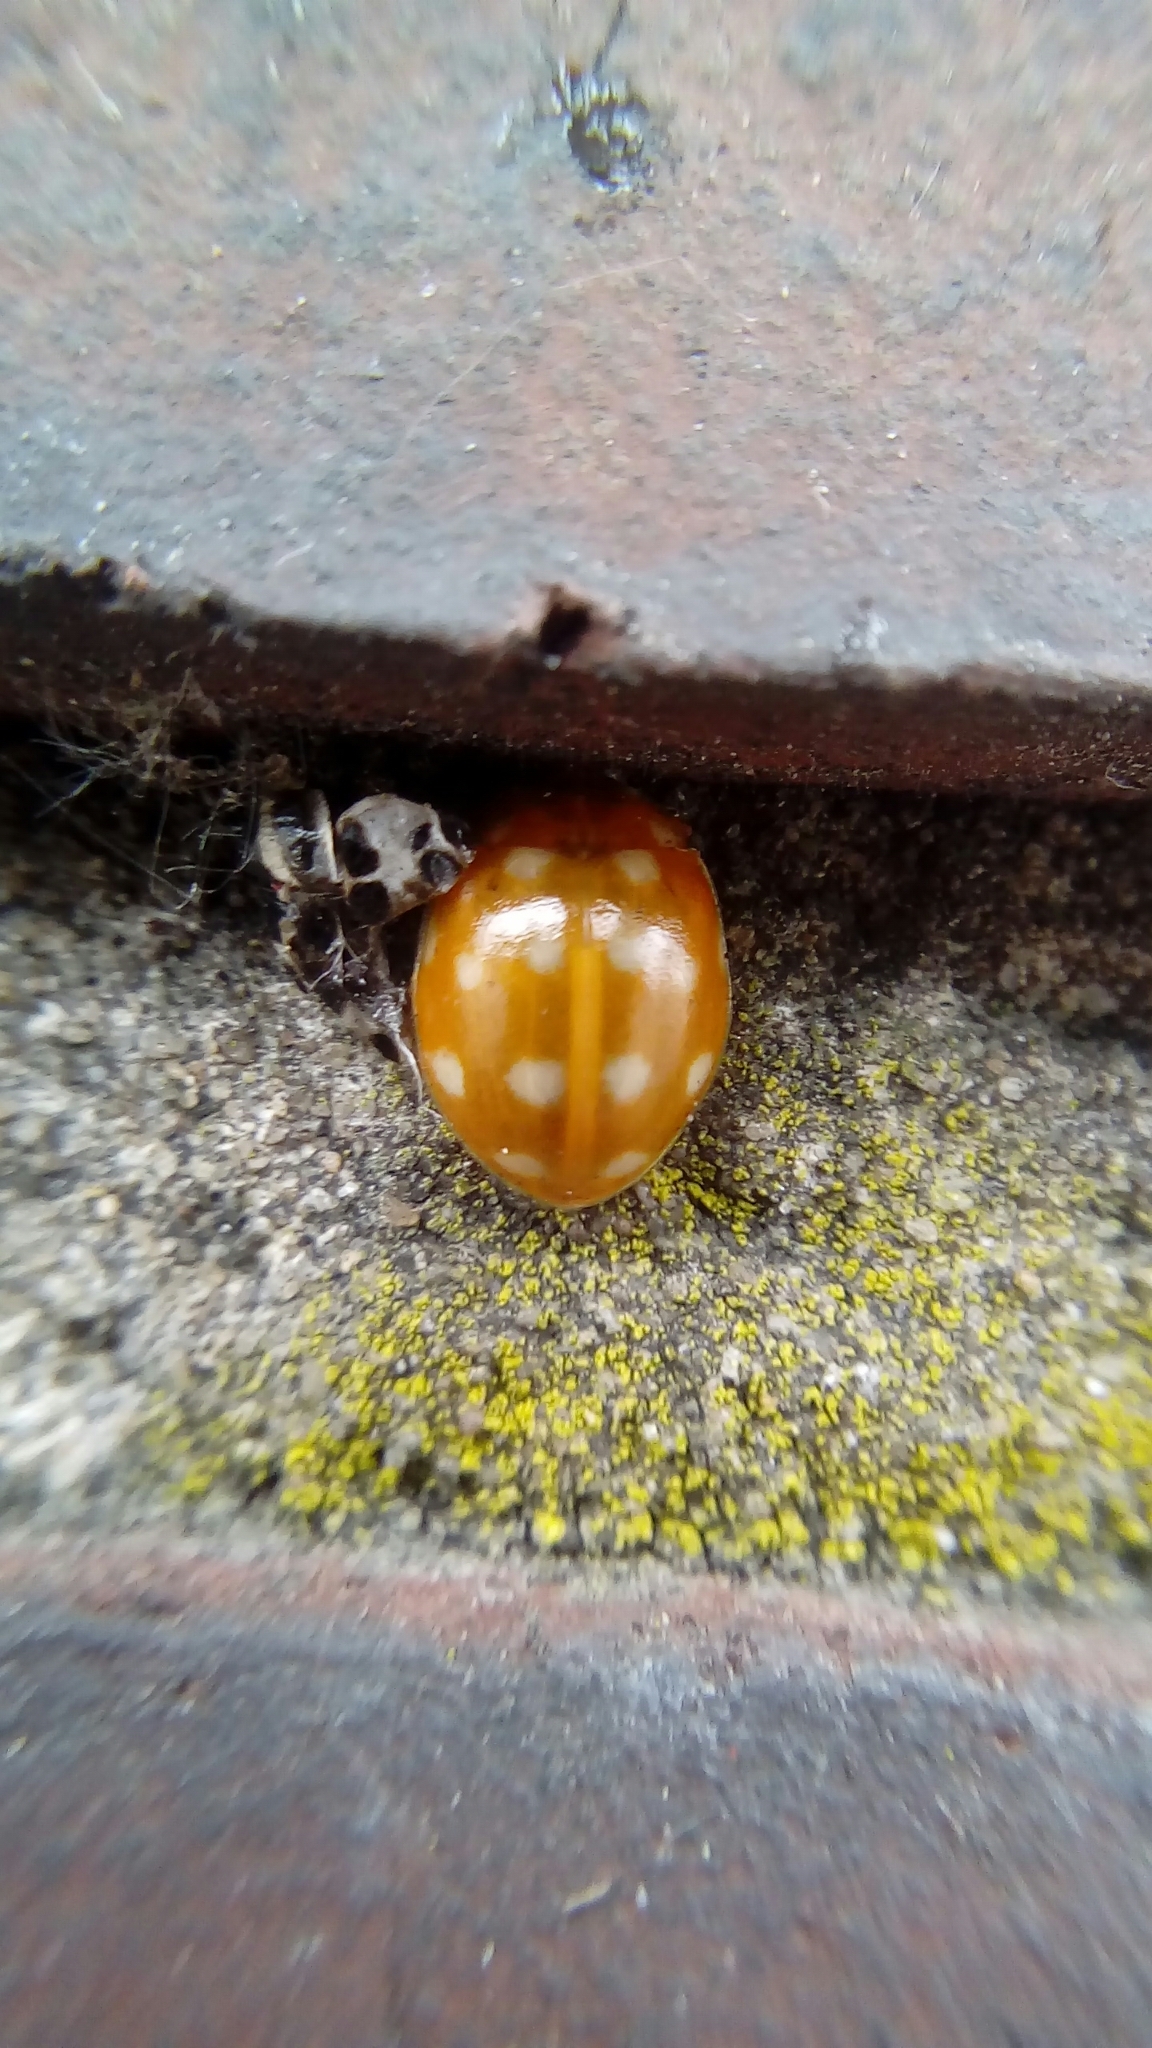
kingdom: Animalia
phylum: Arthropoda
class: Insecta
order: Coleoptera
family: Coccinellidae
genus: Calvia
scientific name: Calvia quatuordecimguttata
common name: Cream-spot ladybird
